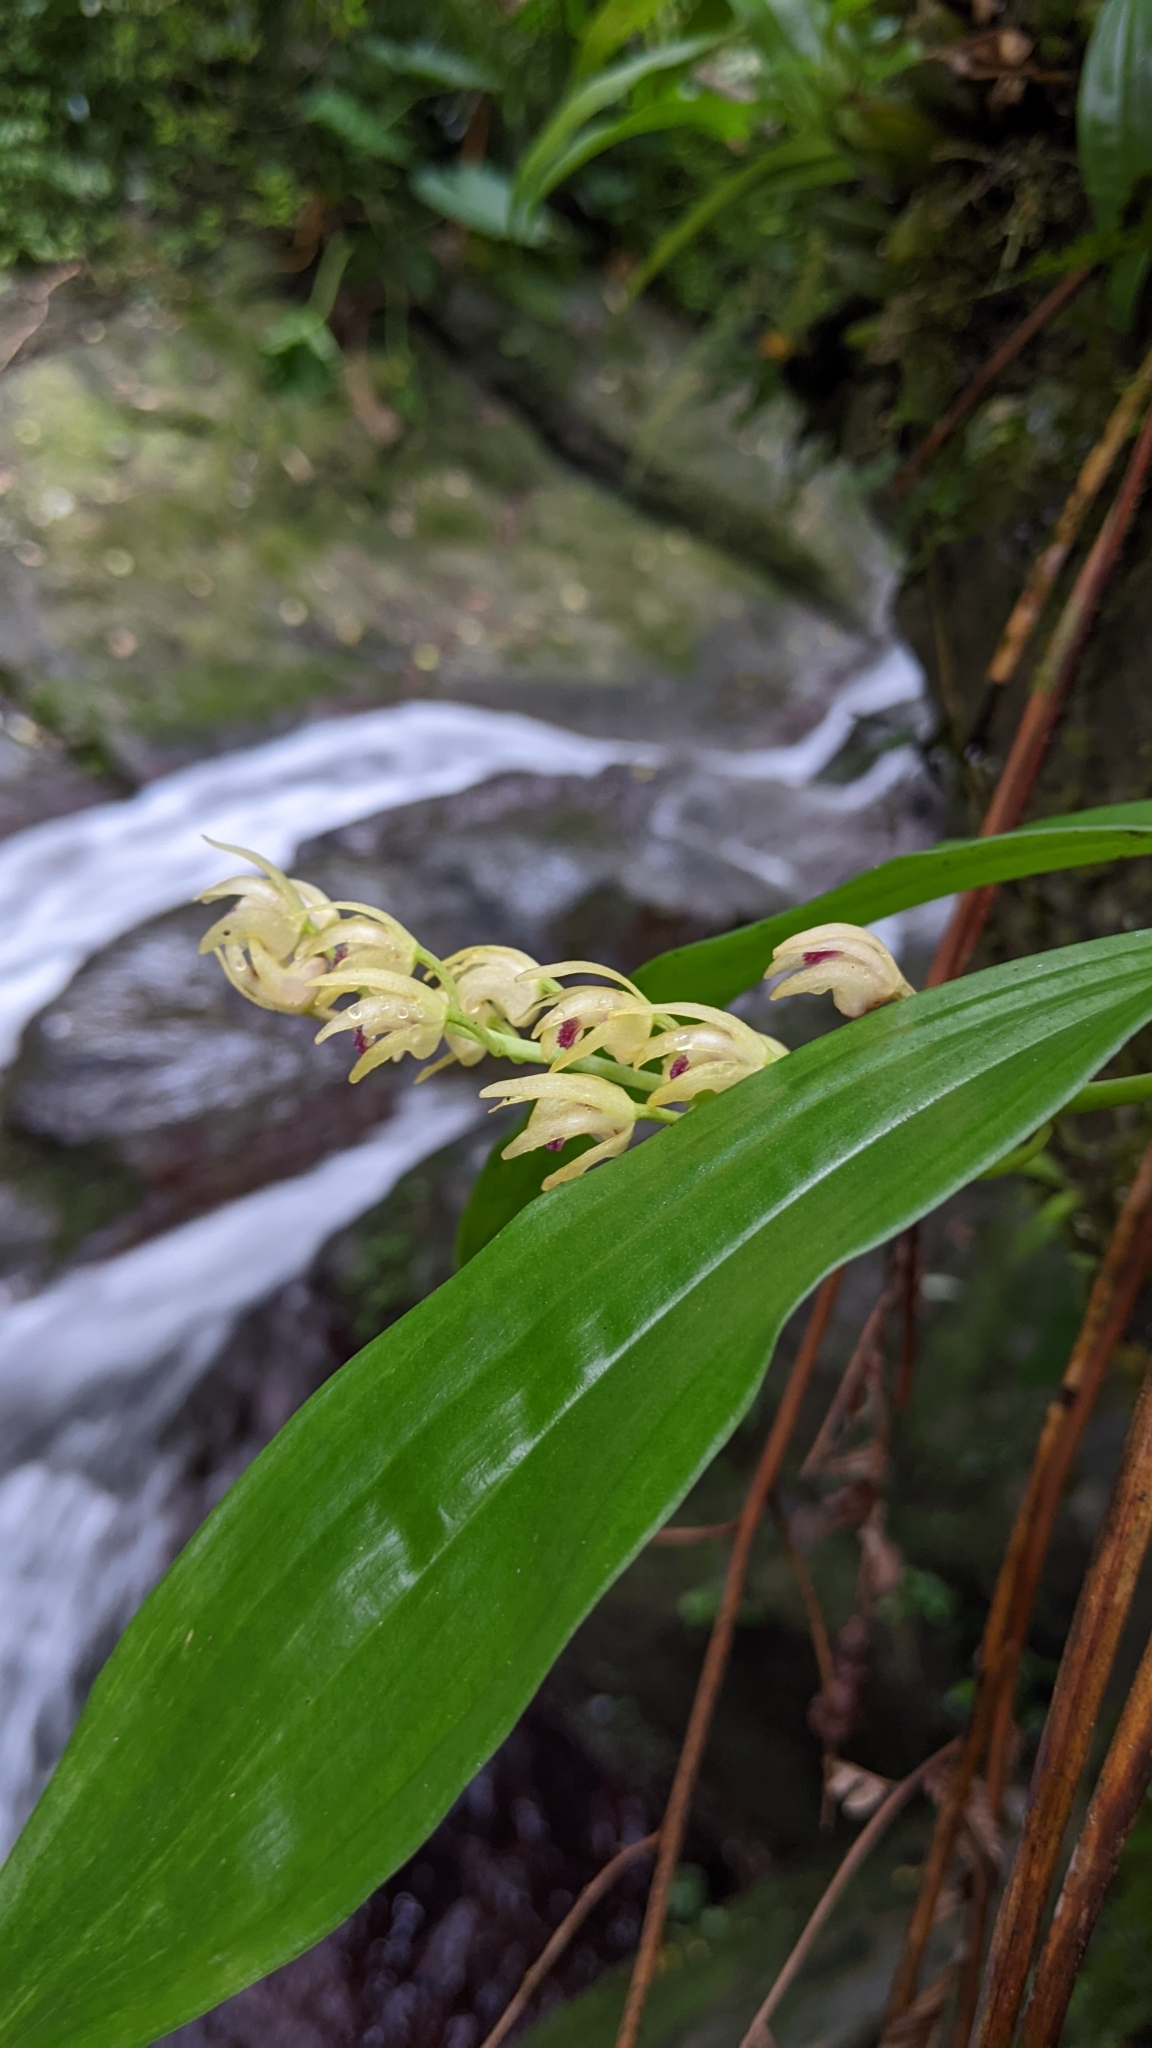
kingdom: Plantae
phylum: Tracheophyta
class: Liliopsida
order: Asparagales
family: Orchidaceae
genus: Eria
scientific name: Eria scabrilinguis
